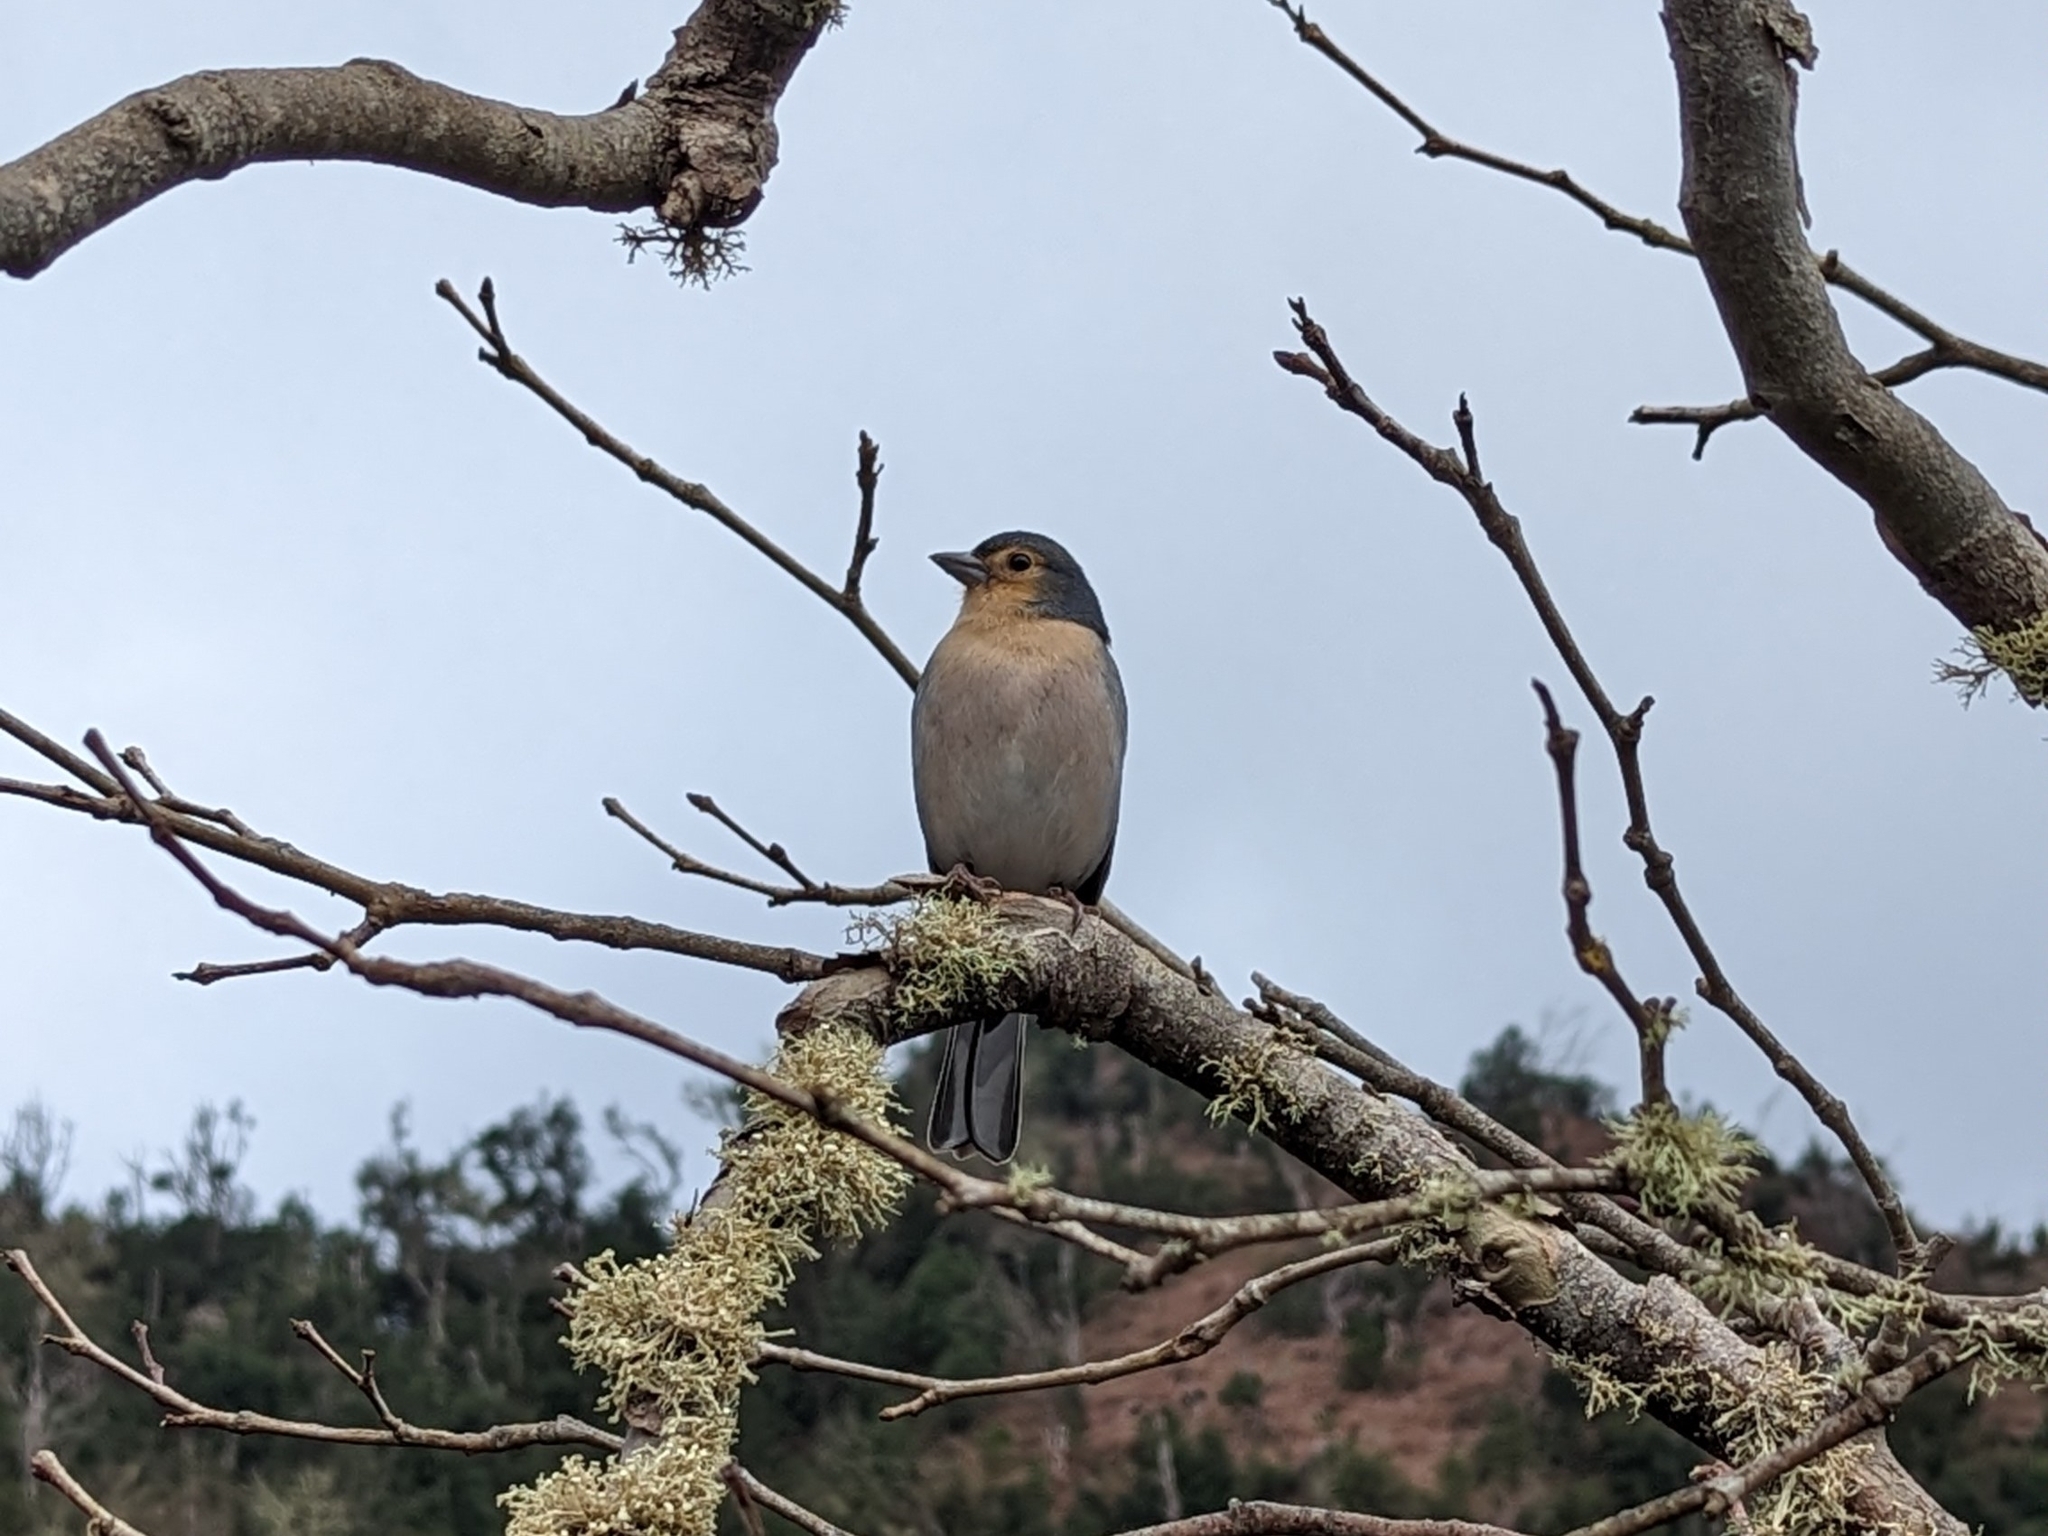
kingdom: Animalia
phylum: Chordata
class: Aves
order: Passeriformes
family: Fringillidae
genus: Fringilla
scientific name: Fringilla maderensis
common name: Madeira chaffinch
